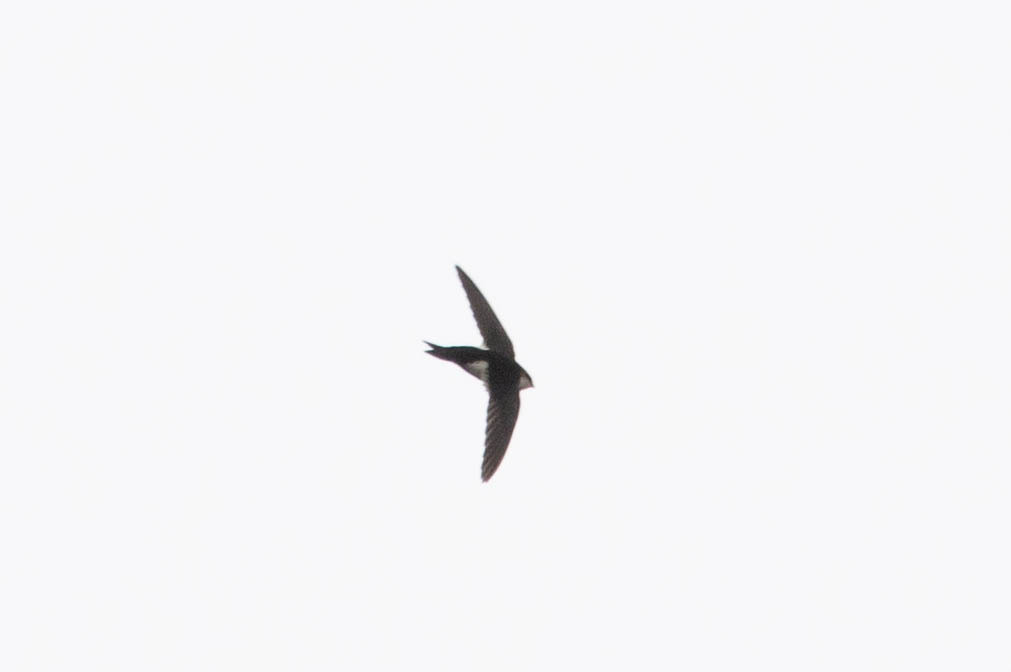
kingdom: Animalia
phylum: Chordata
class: Aves
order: Apodiformes
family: Apodidae
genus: Aeronautes
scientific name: Aeronautes saxatalis
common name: White-throated swift
